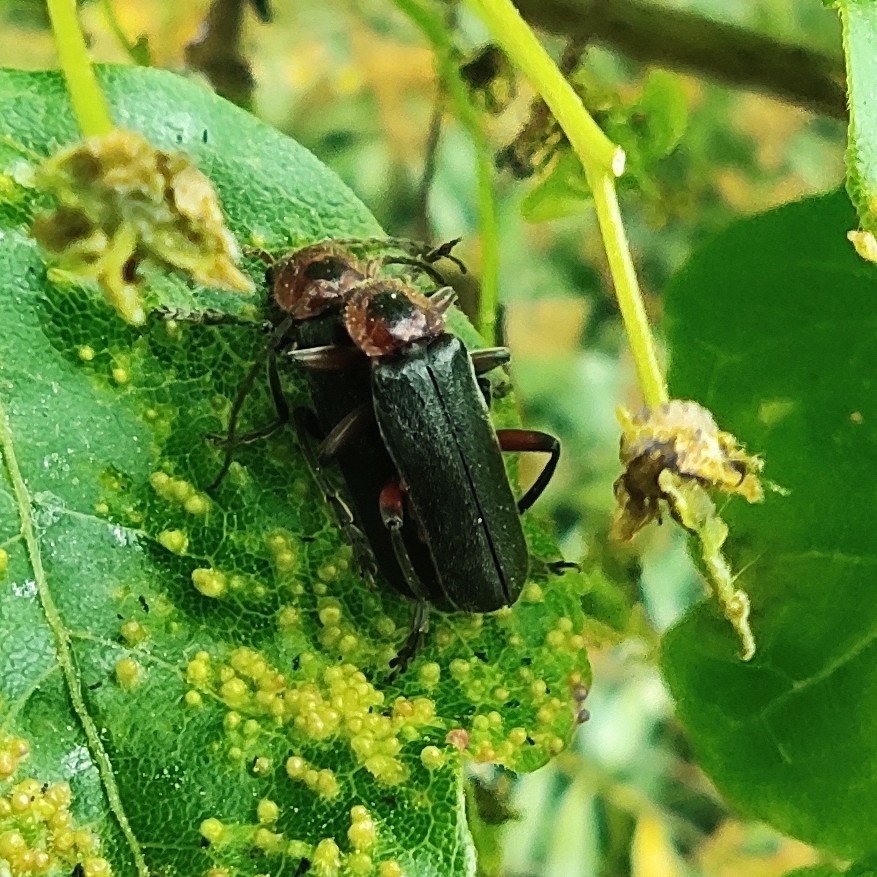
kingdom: Animalia
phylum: Arthropoda
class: Insecta
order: Coleoptera
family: Cantharidae
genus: Cantharis
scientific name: Cantharis rustica
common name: Soldier beetle
